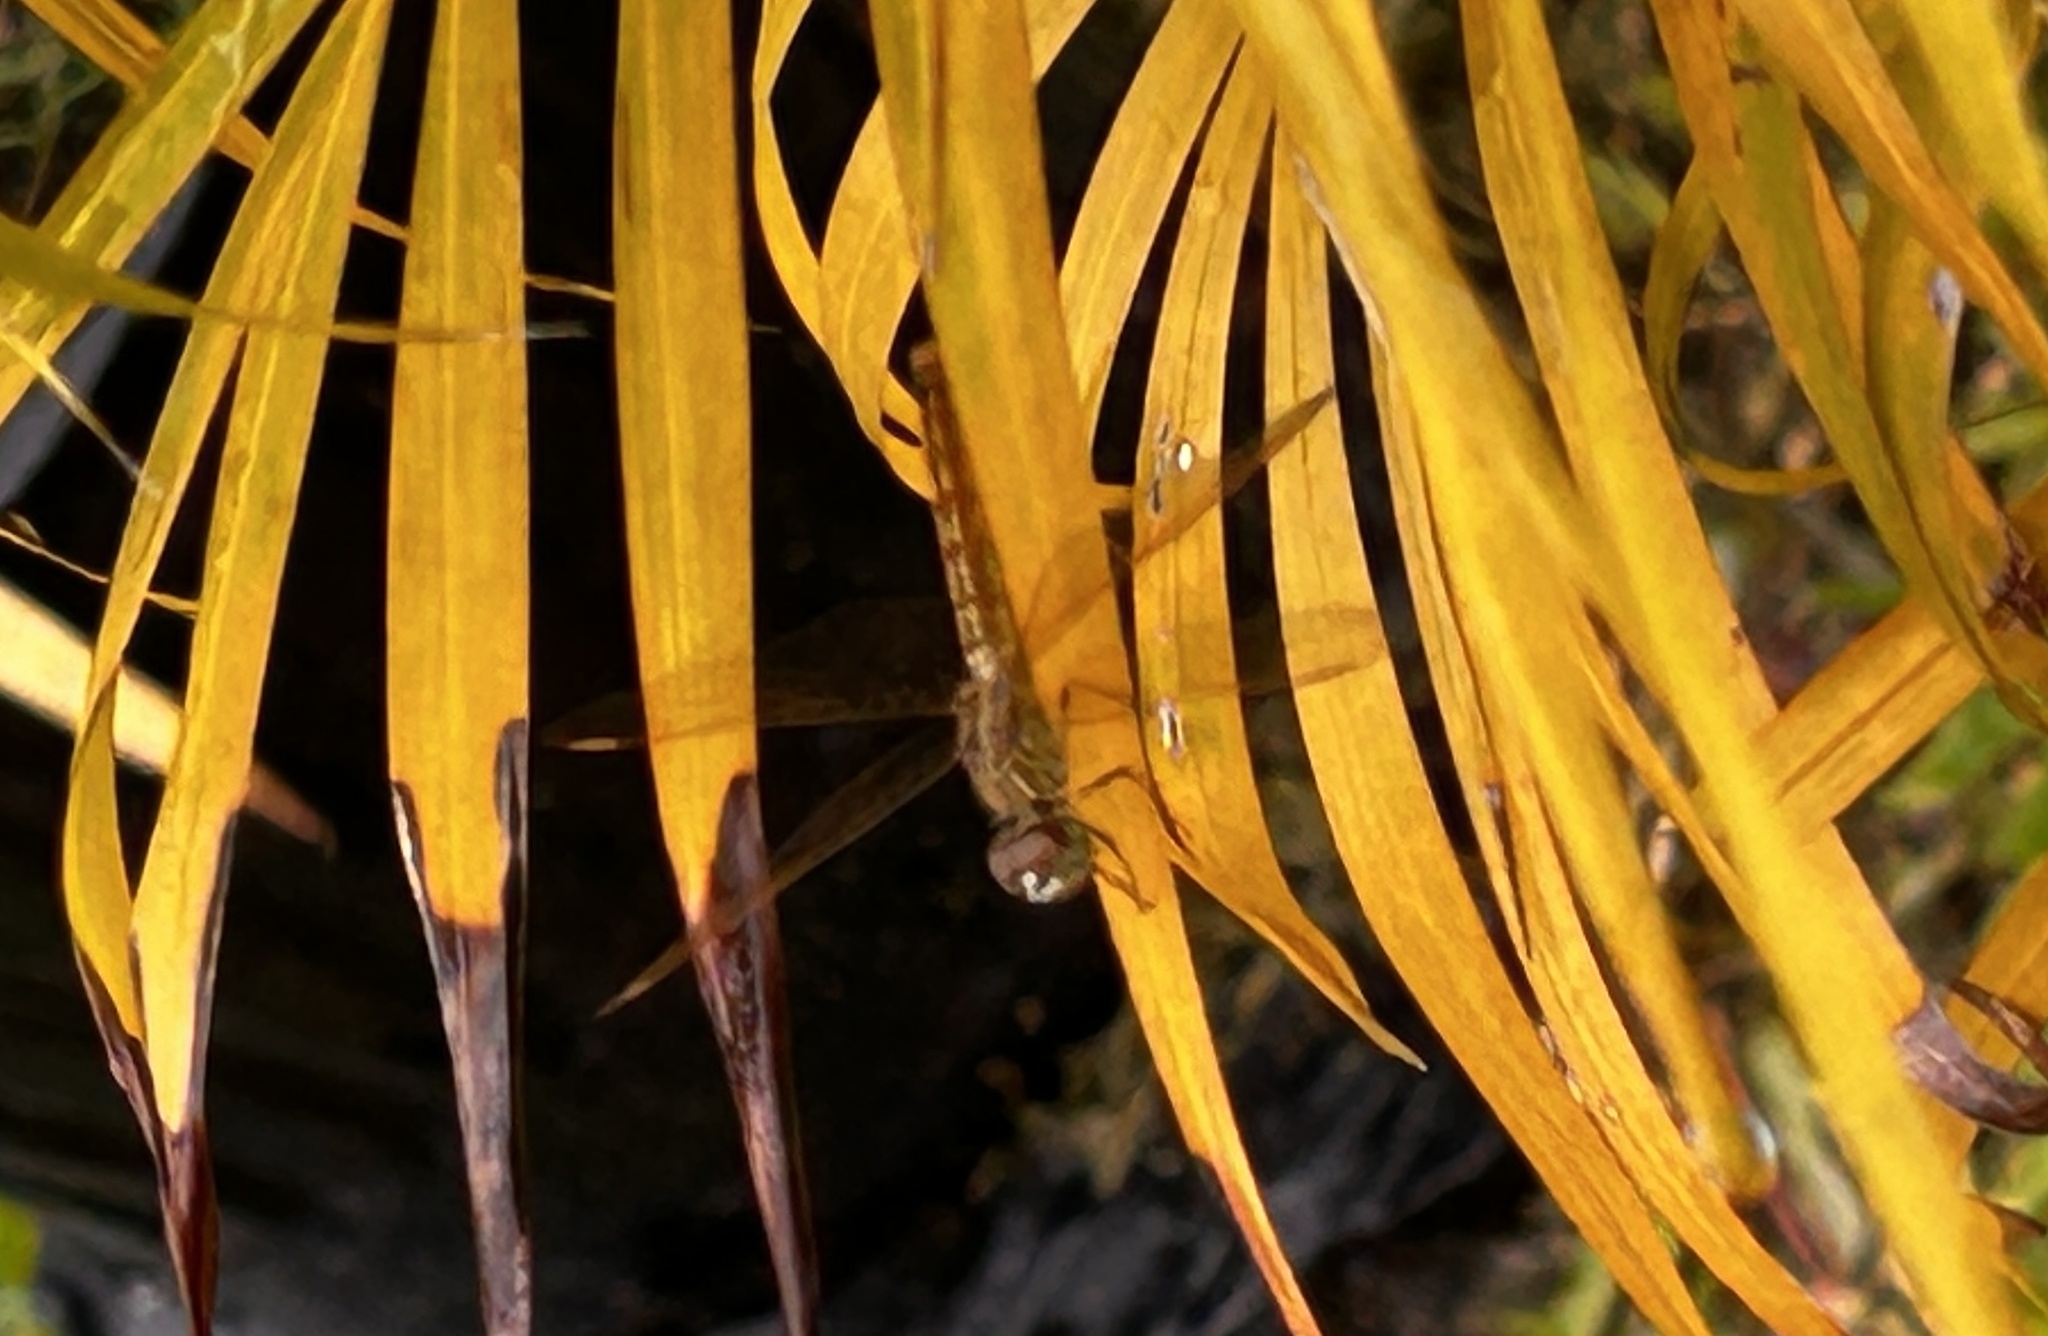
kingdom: Animalia
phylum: Arthropoda
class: Insecta
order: Odonata
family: Libellulidae
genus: Brachythemis
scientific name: Brachythemis contaminata
